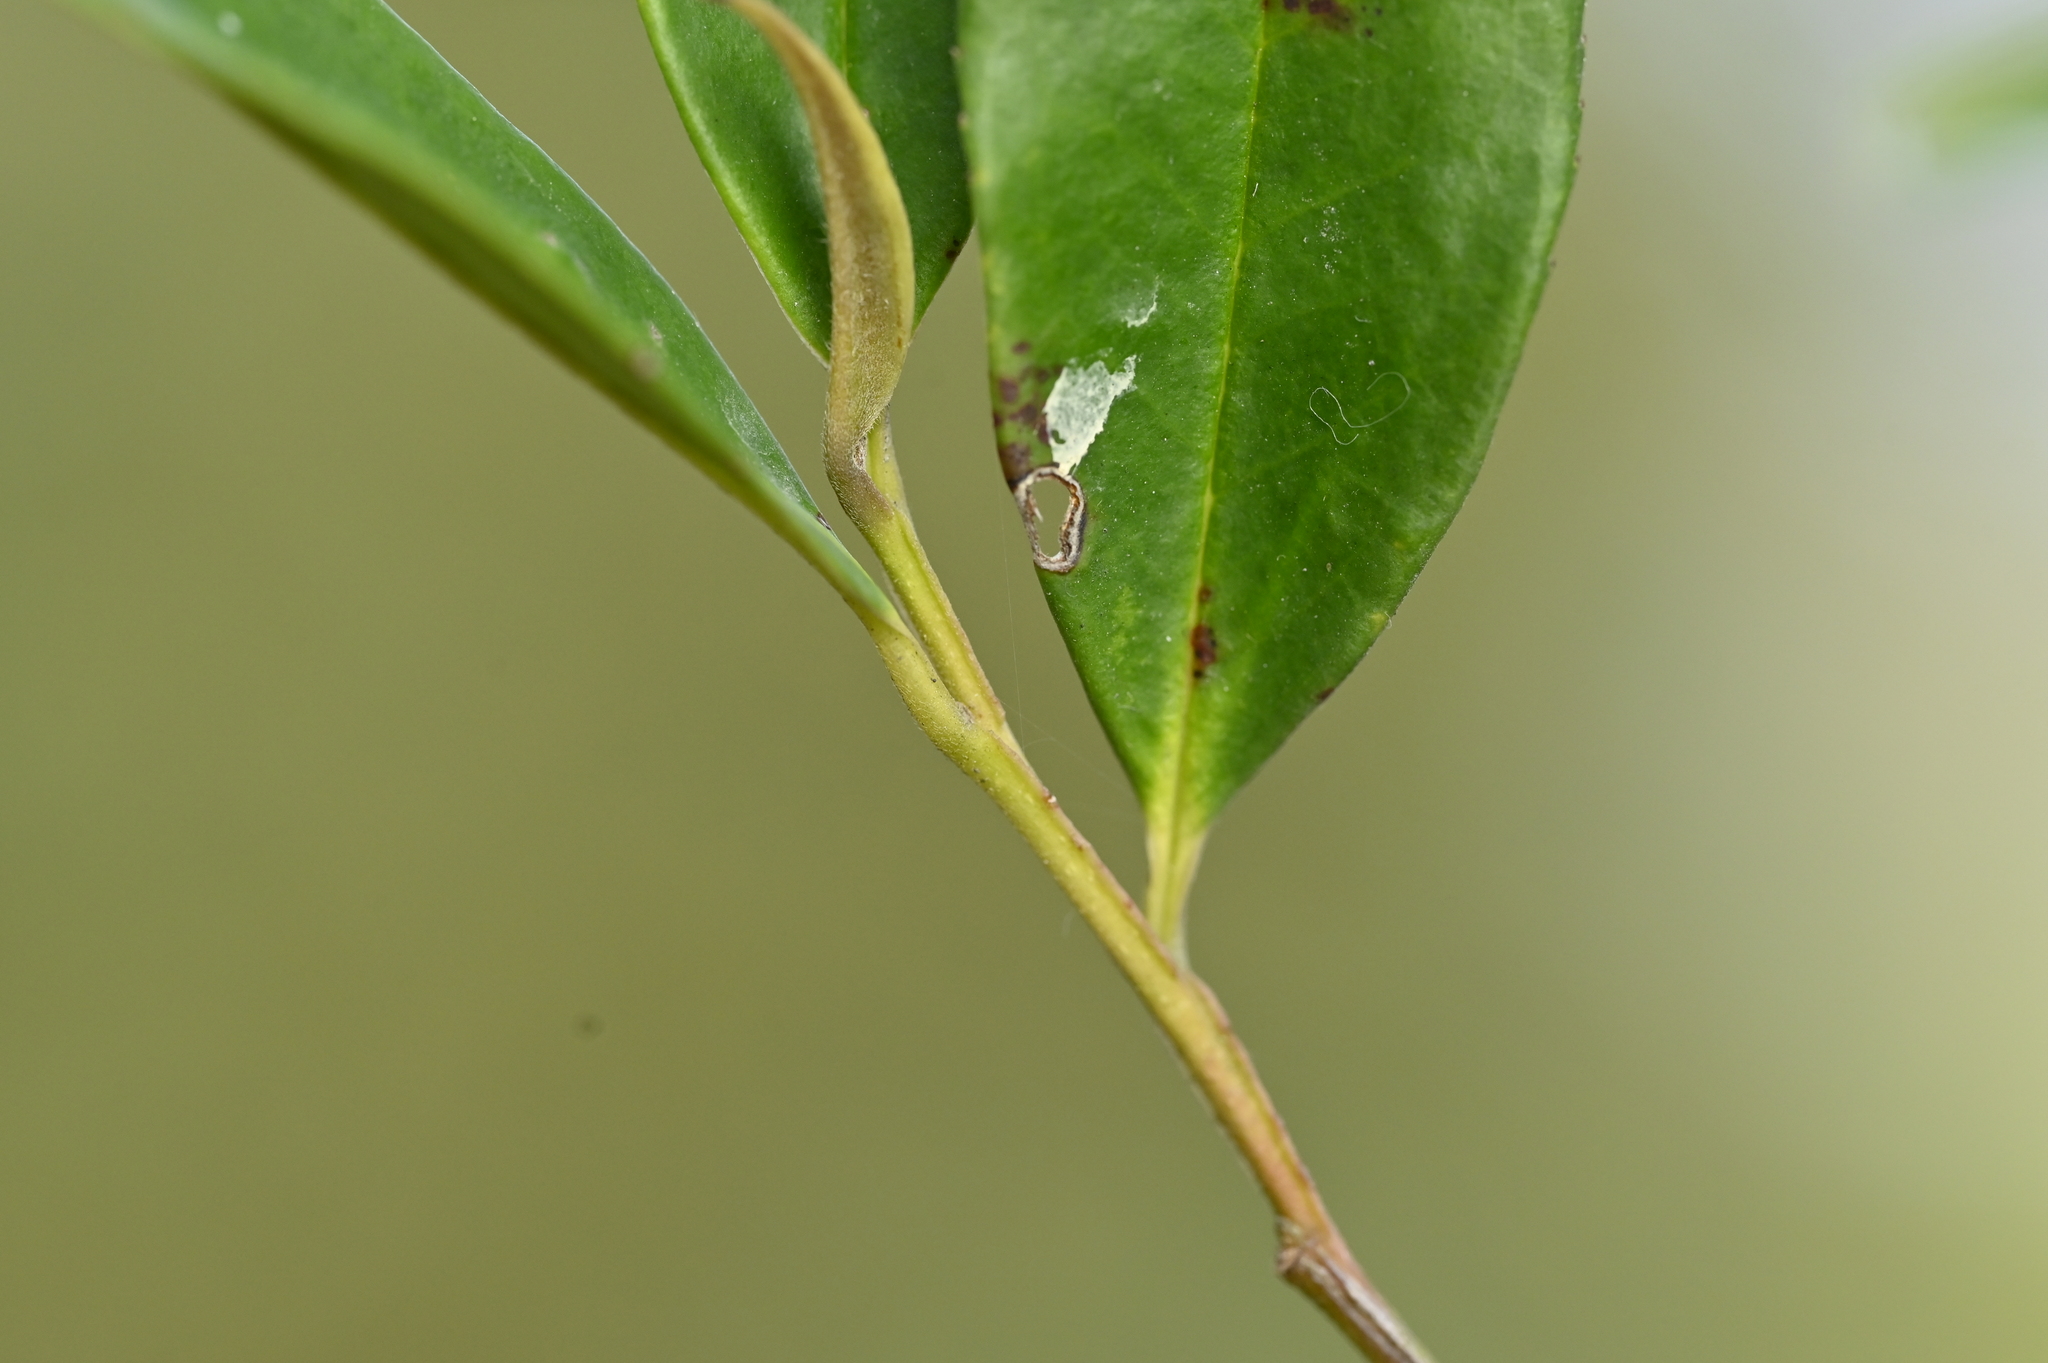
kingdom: Plantae
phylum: Tracheophyta
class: Magnoliopsida
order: Ericales
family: Pentaphylacaceae
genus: Eurya
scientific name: Eurya gnaphalocarpa
